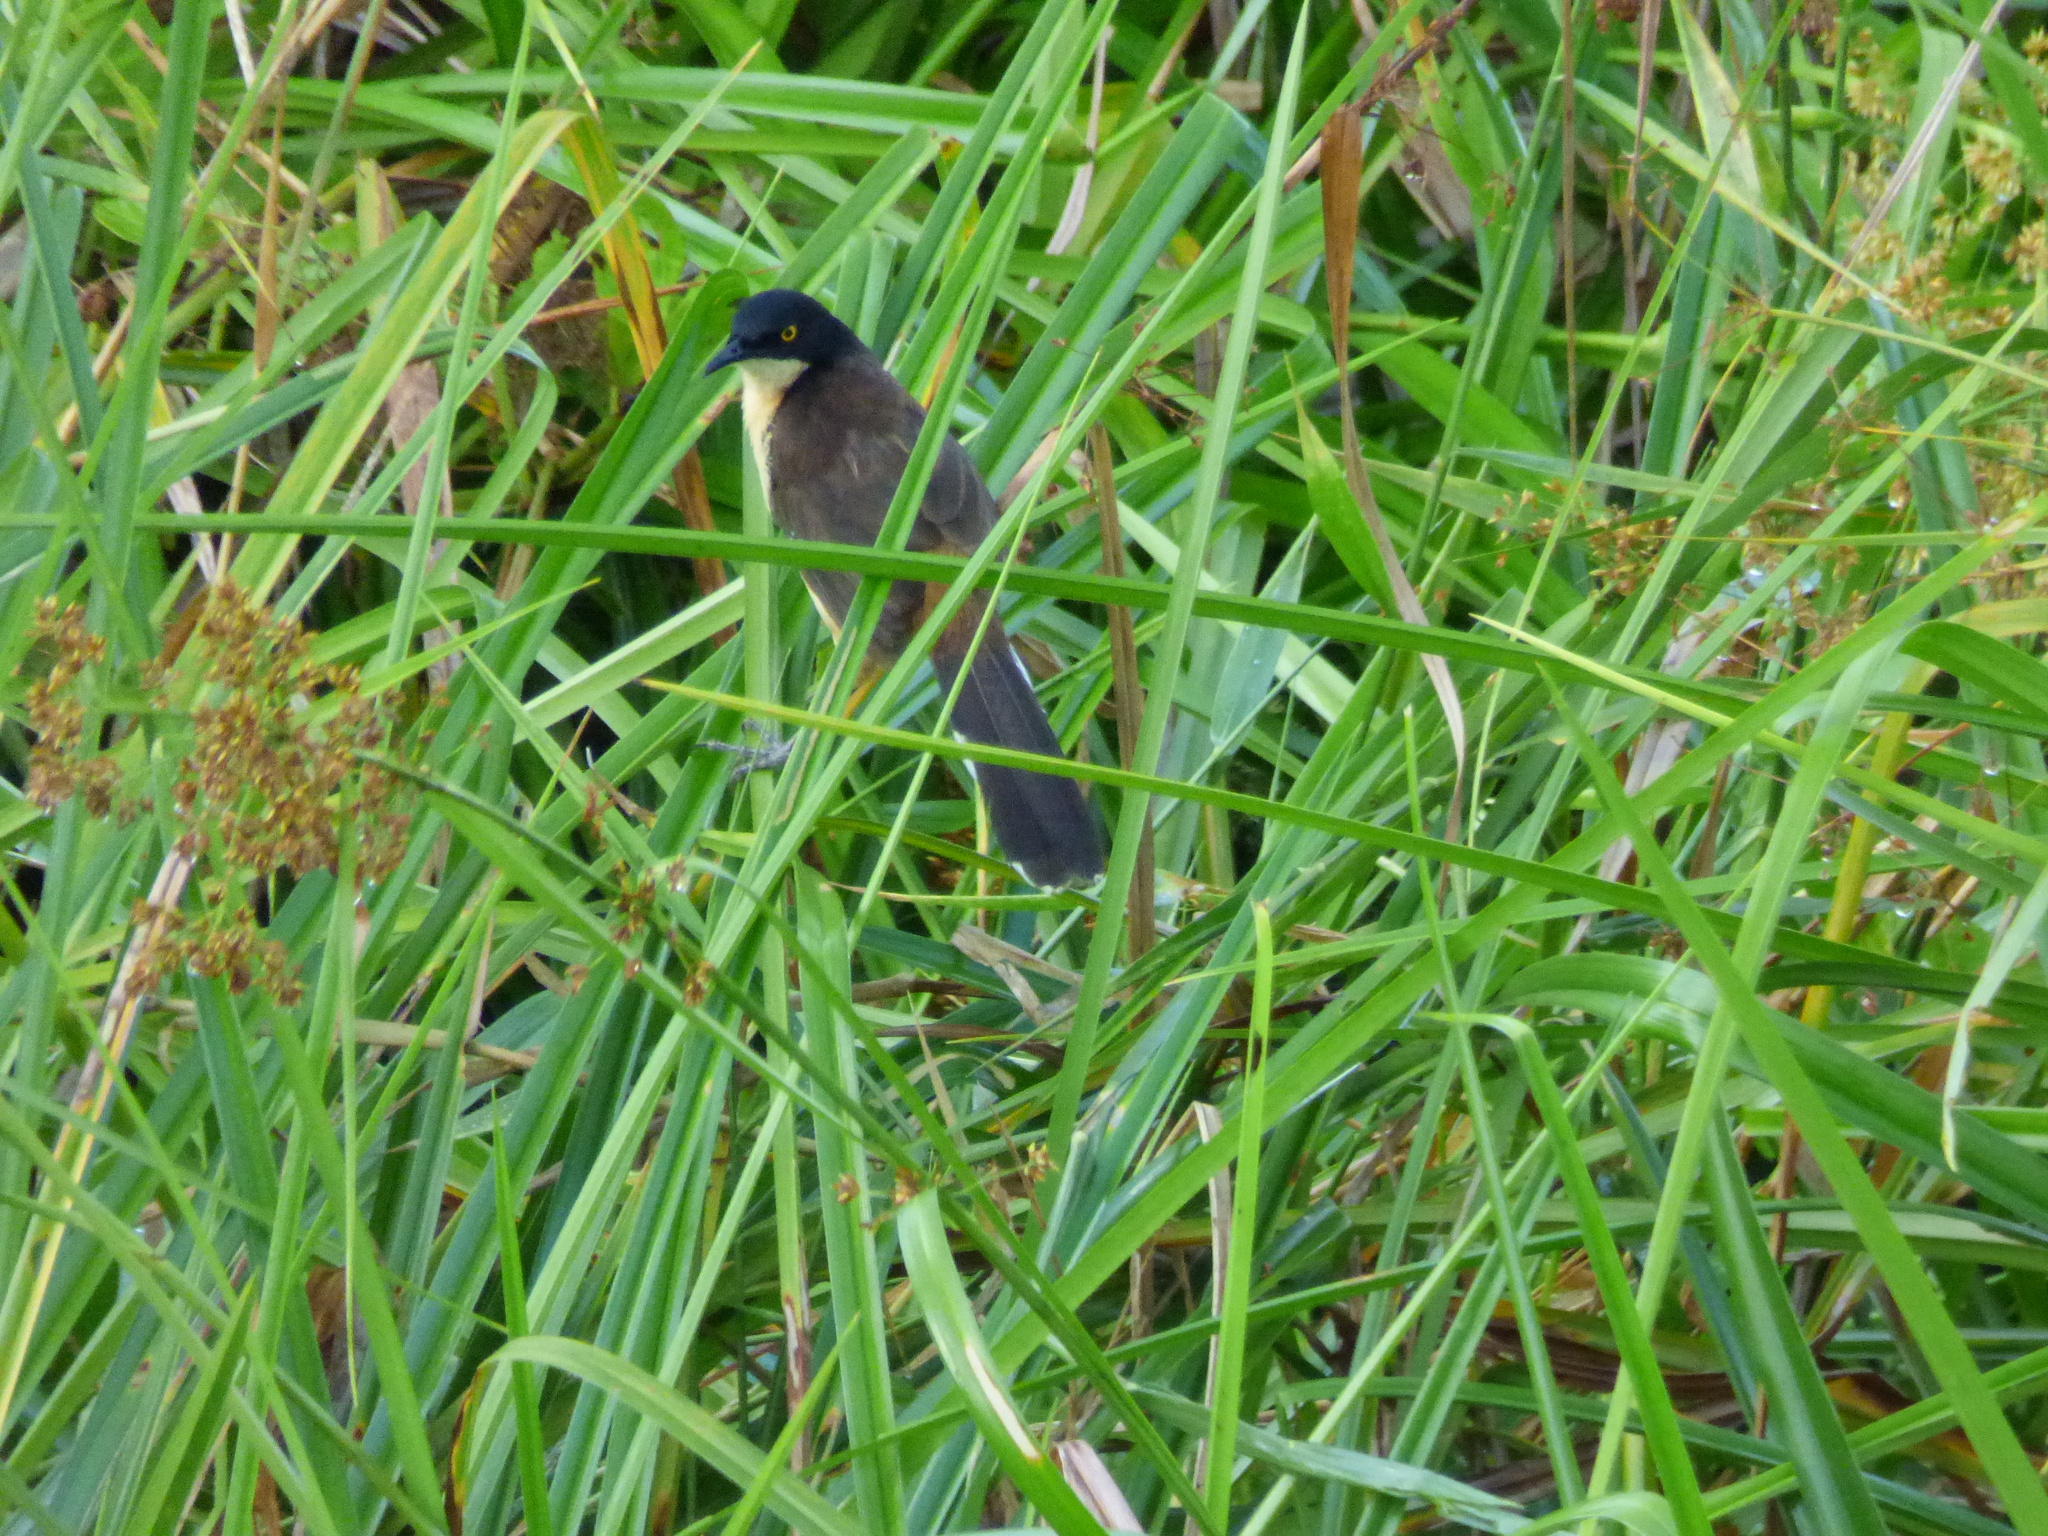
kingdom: Animalia
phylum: Chordata
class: Aves
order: Passeriformes
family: Donacobiidae
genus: Donacobius
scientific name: Donacobius atricapilla
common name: Black-capped donacobius
